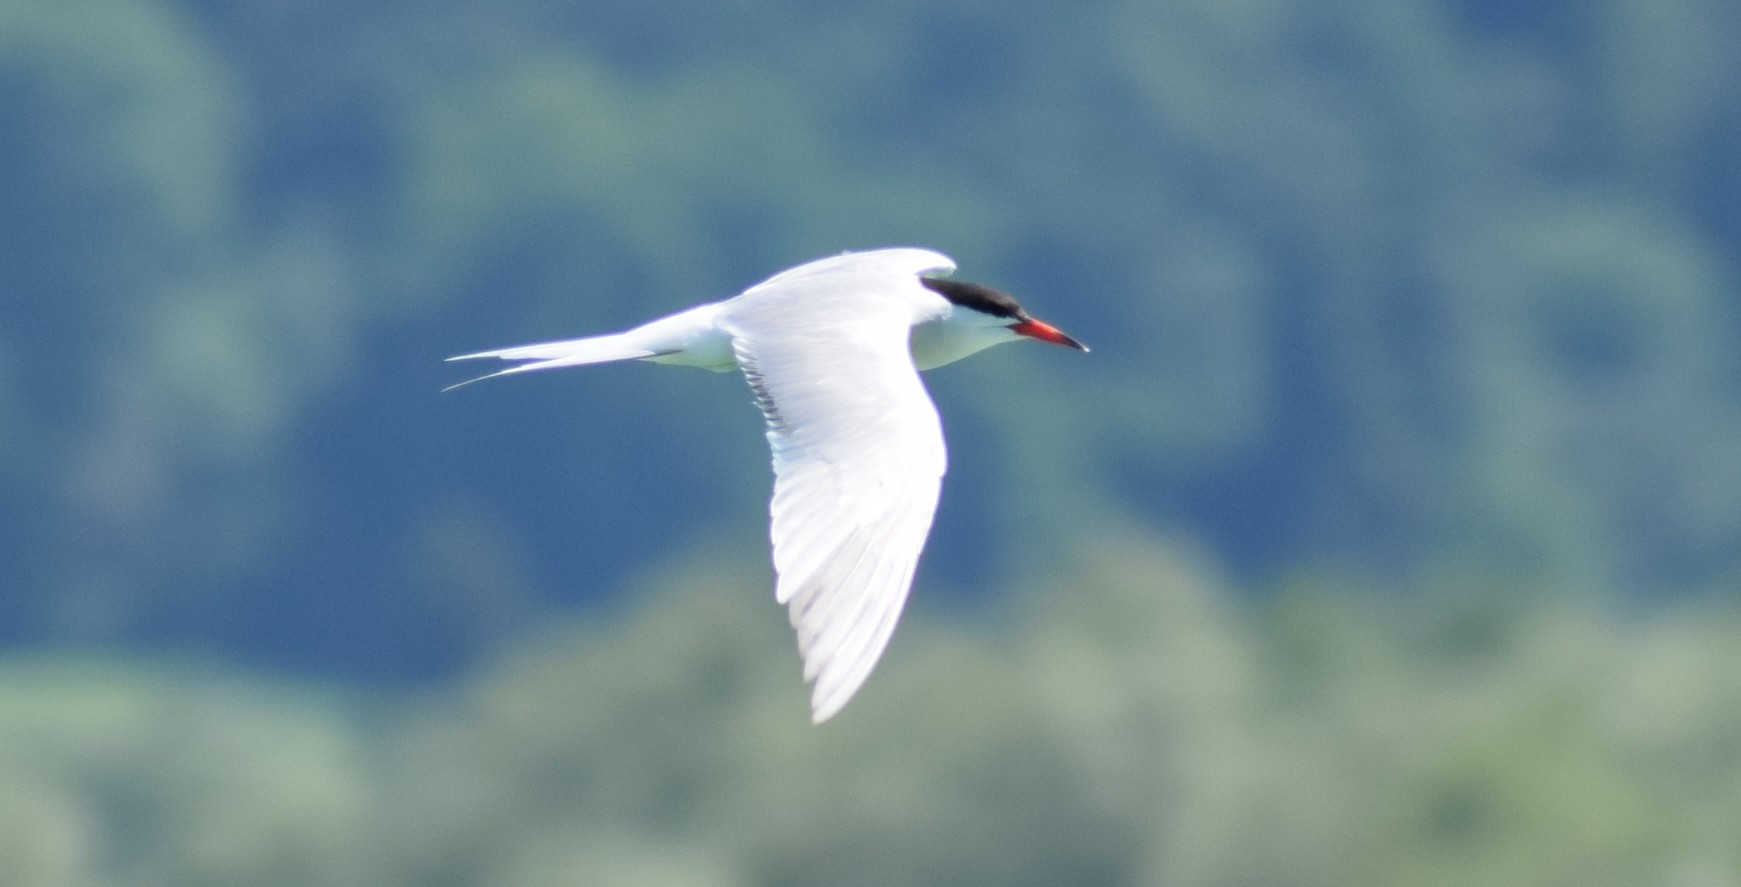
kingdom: Animalia
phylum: Chordata
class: Aves
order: Charadriiformes
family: Laridae
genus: Sterna
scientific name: Sterna hirundo
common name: Common tern
